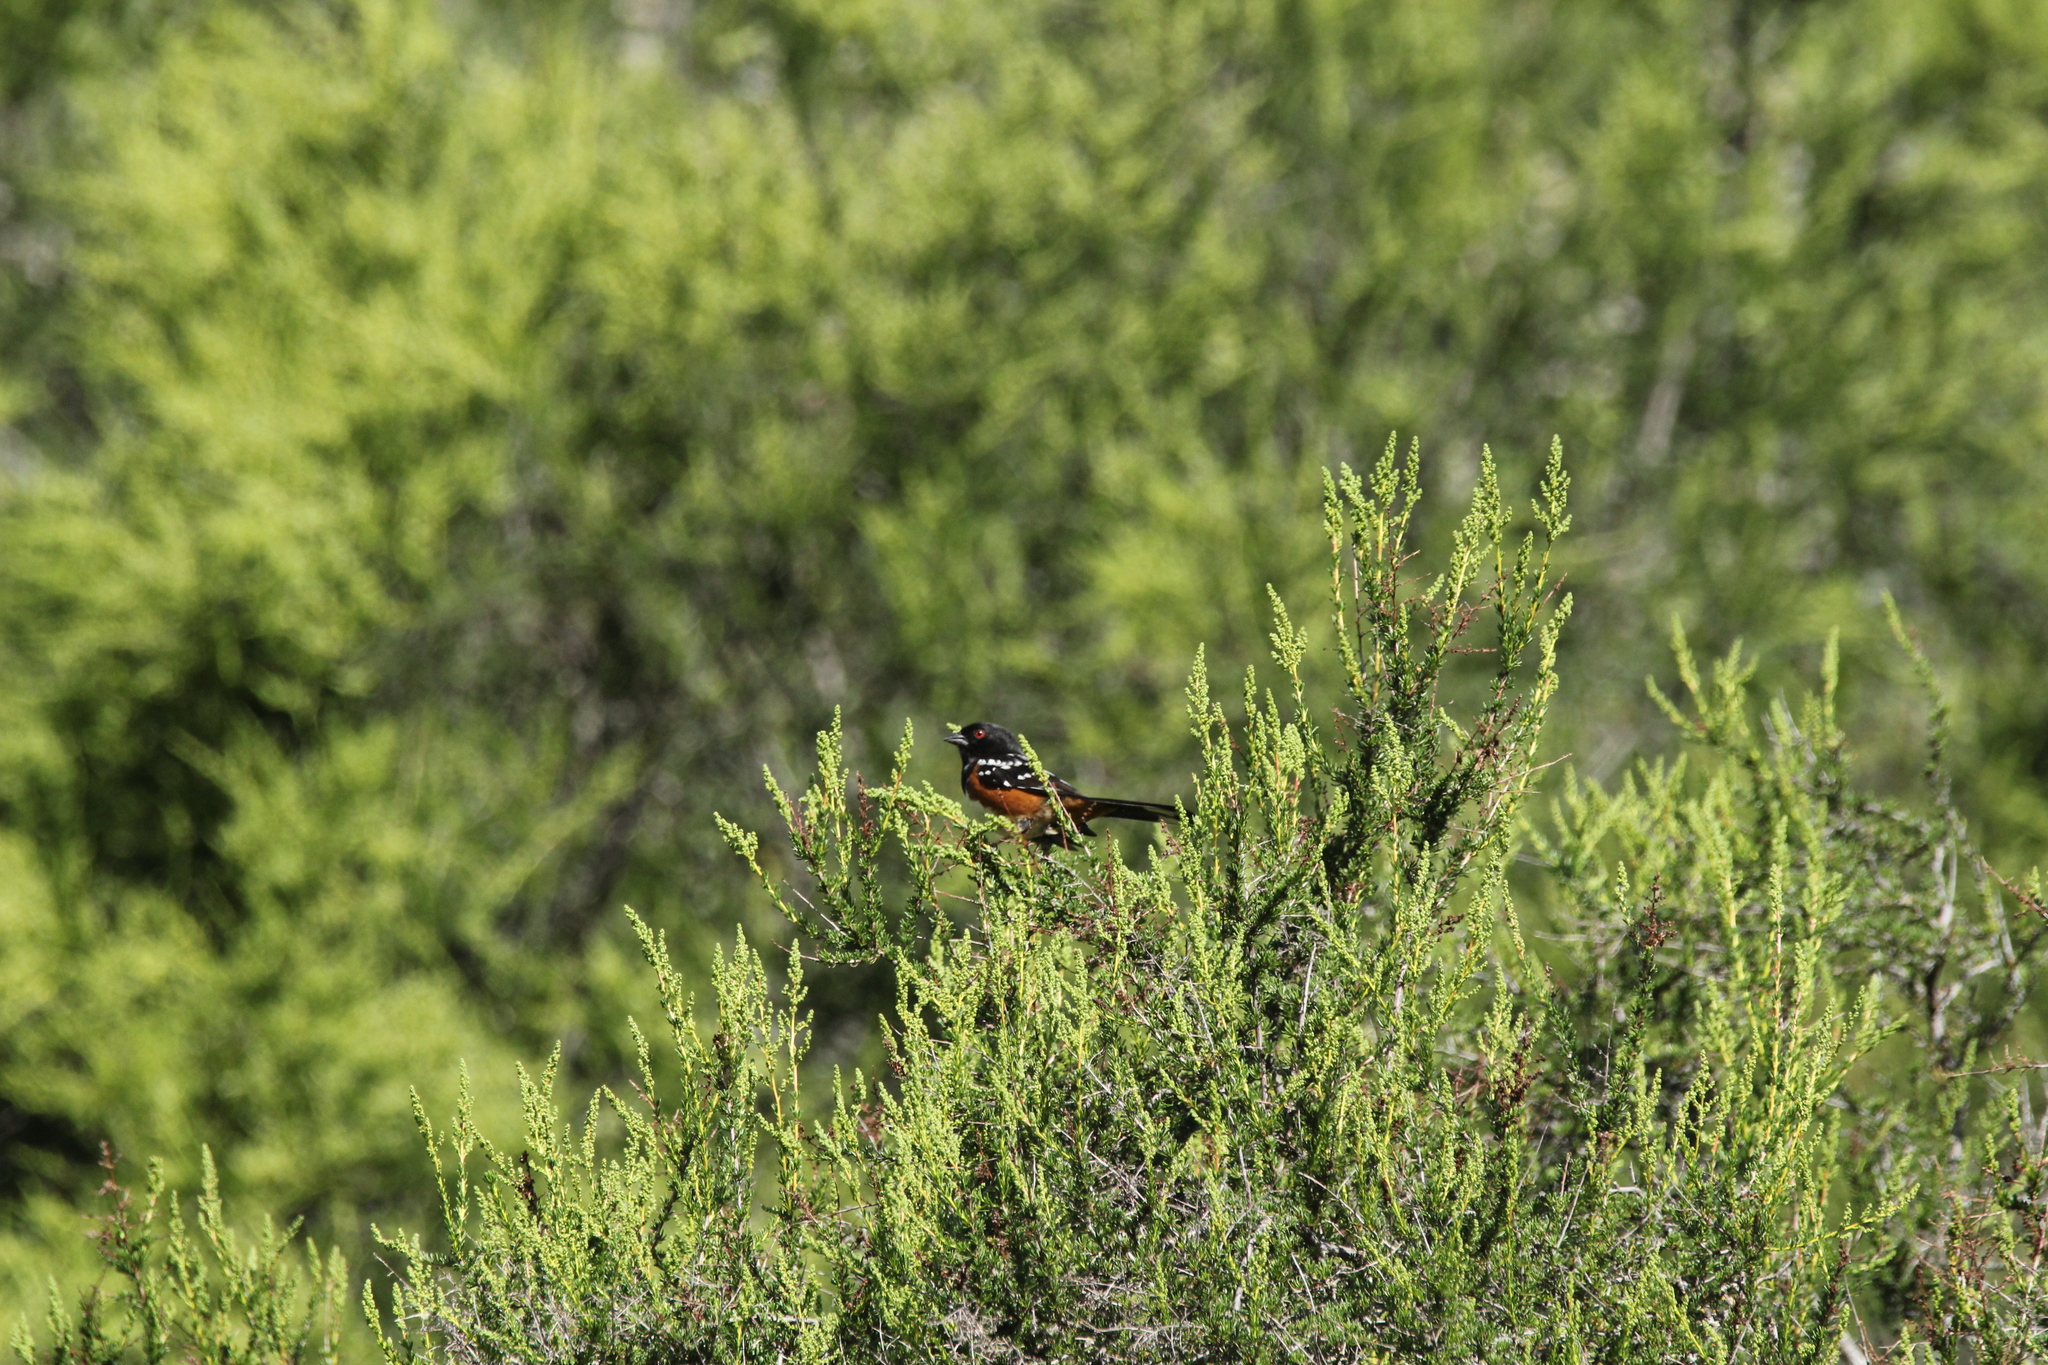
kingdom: Animalia
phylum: Chordata
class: Aves
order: Passeriformes
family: Passerellidae
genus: Pipilo
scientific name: Pipilo maculatus
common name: Spotted towhee
